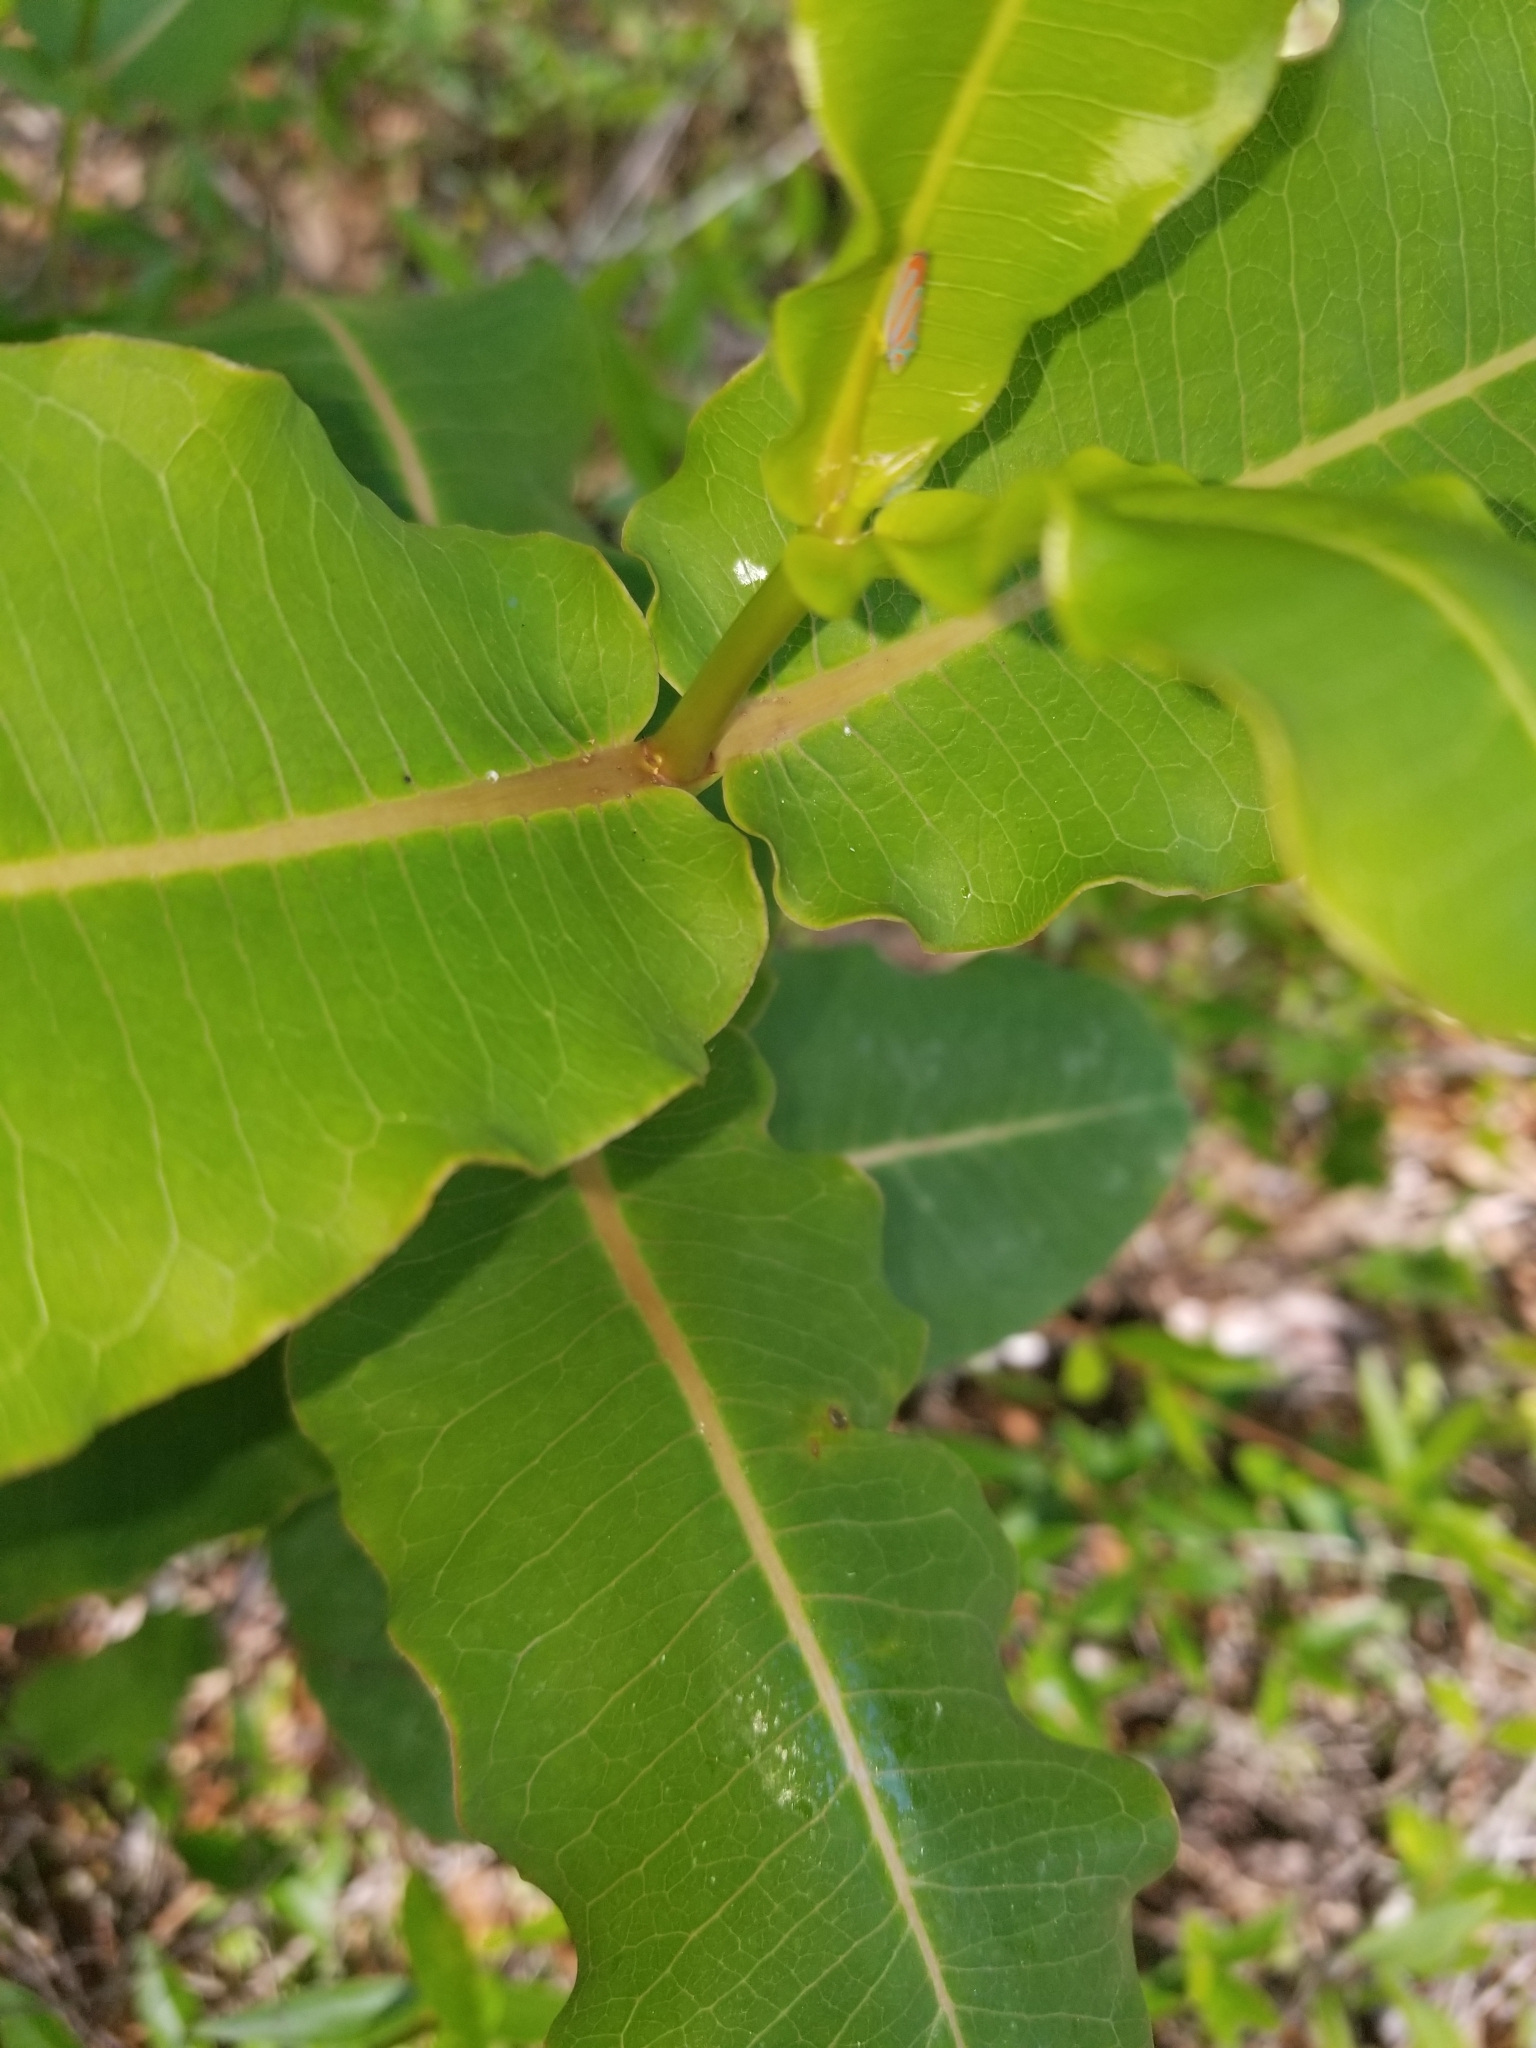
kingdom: Plantae
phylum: Tracheophyta
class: Magnoliopsida
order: Gentianales
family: Apocynaceae
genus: Asclepias
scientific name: Asclepias amplexicaulis
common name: Blunt-leaf milkweed
